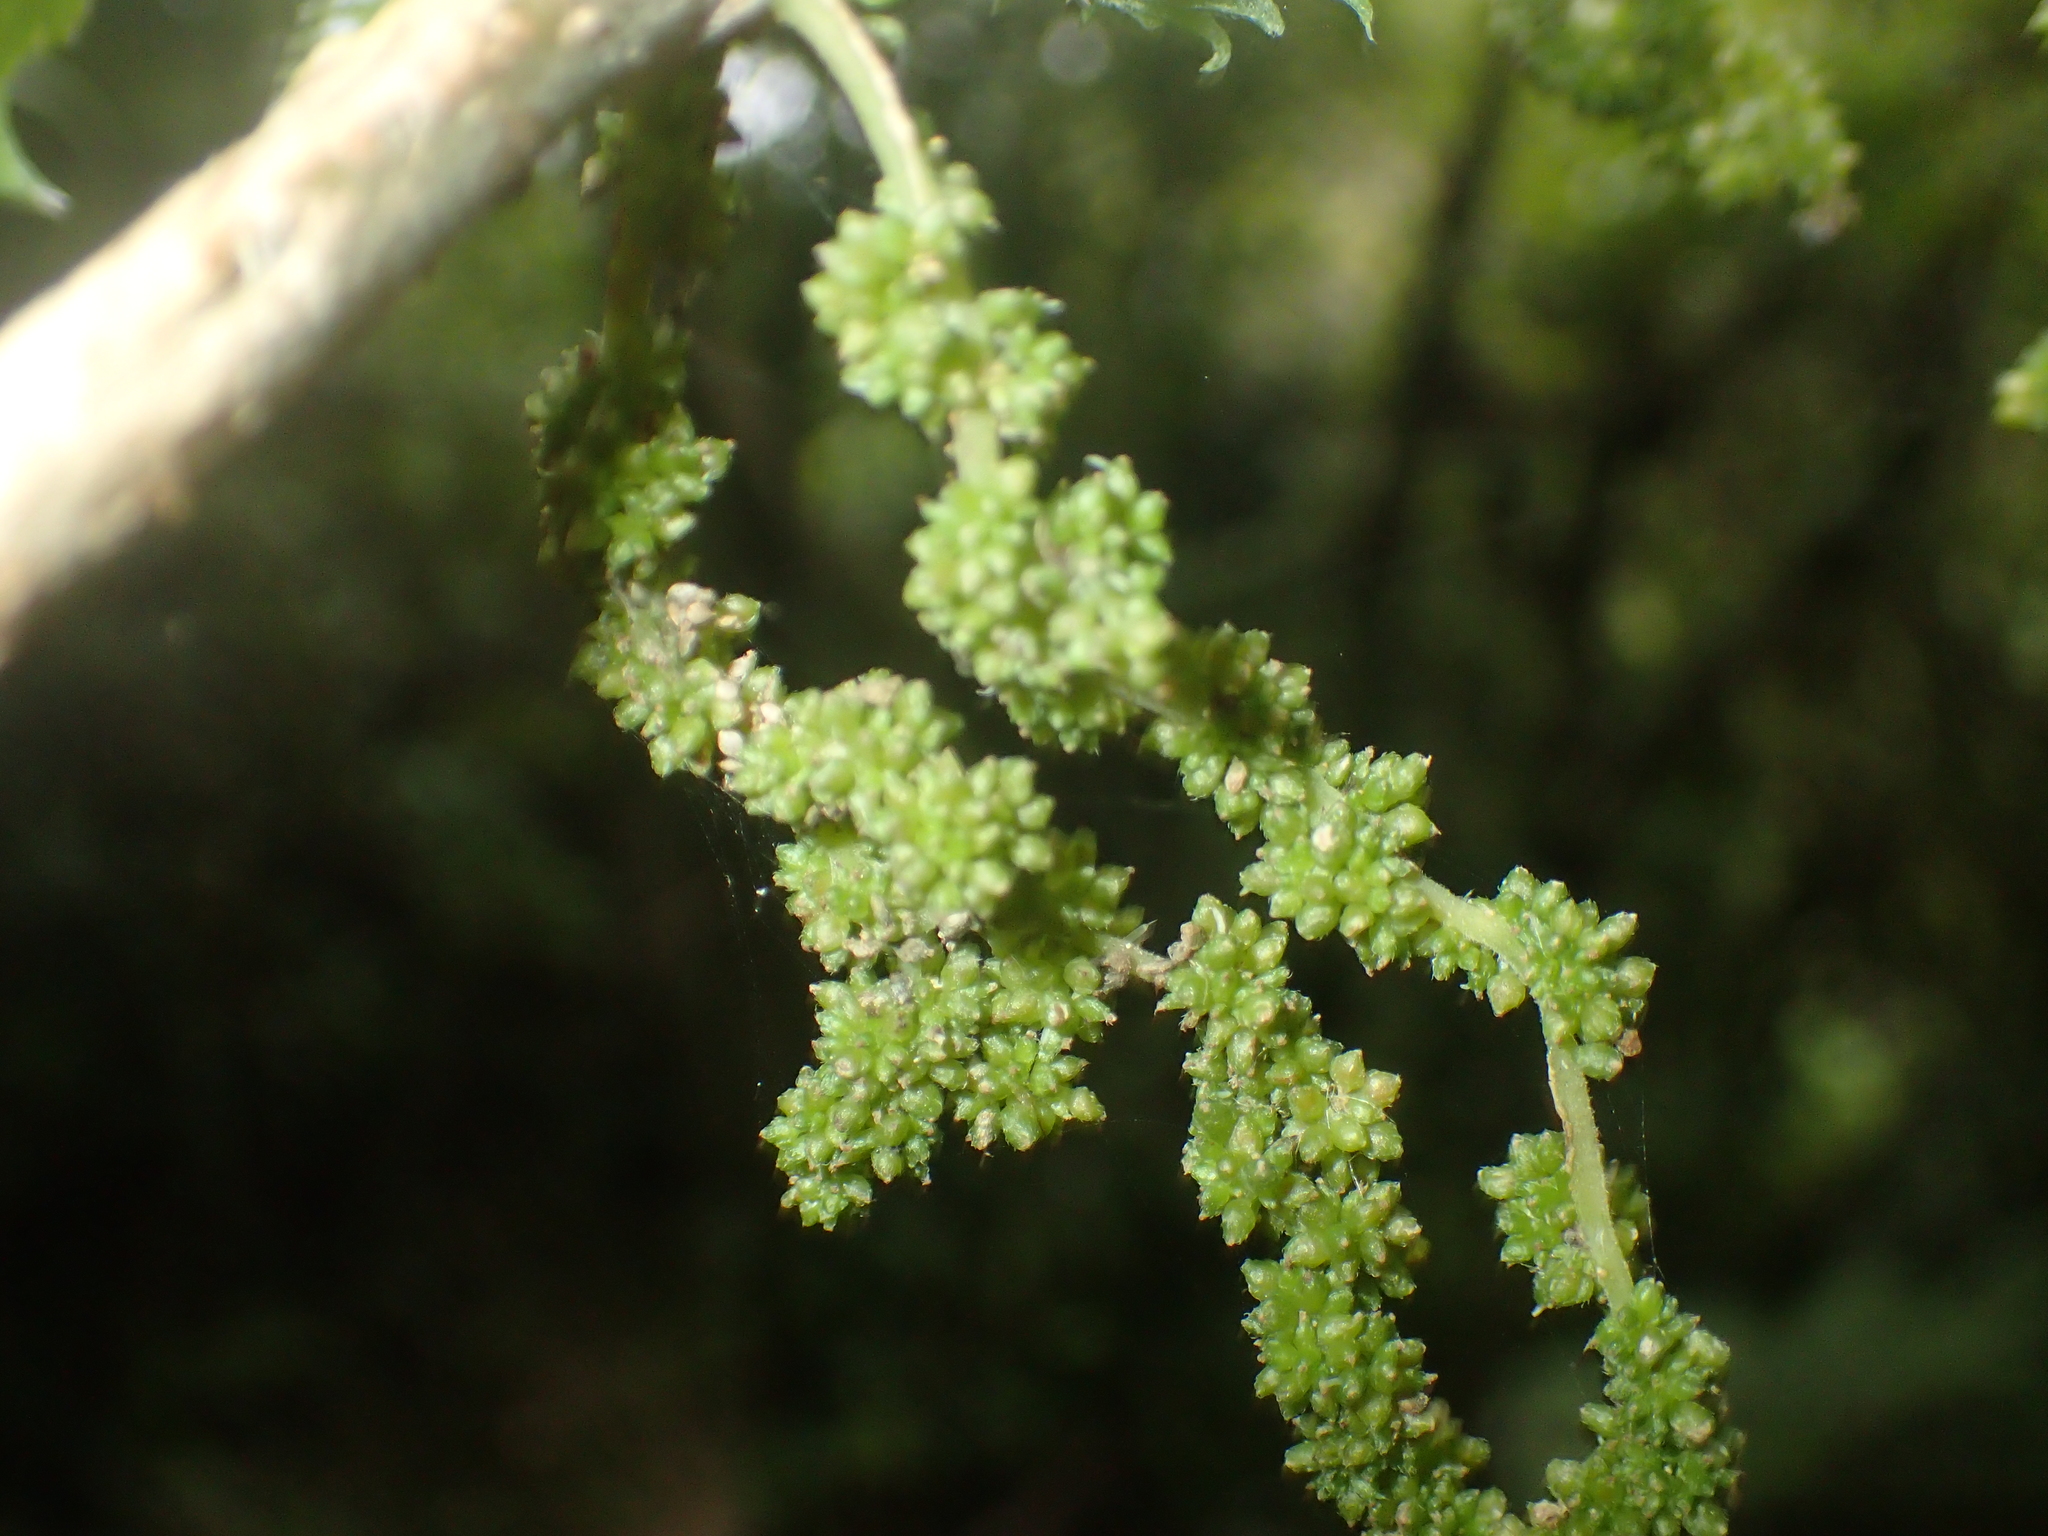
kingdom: Plantae
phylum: Tracheophyta
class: Magnoliopsida
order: Rosales
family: Urticaceae
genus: Urtica
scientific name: Urtica ferox
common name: Tree nettle
